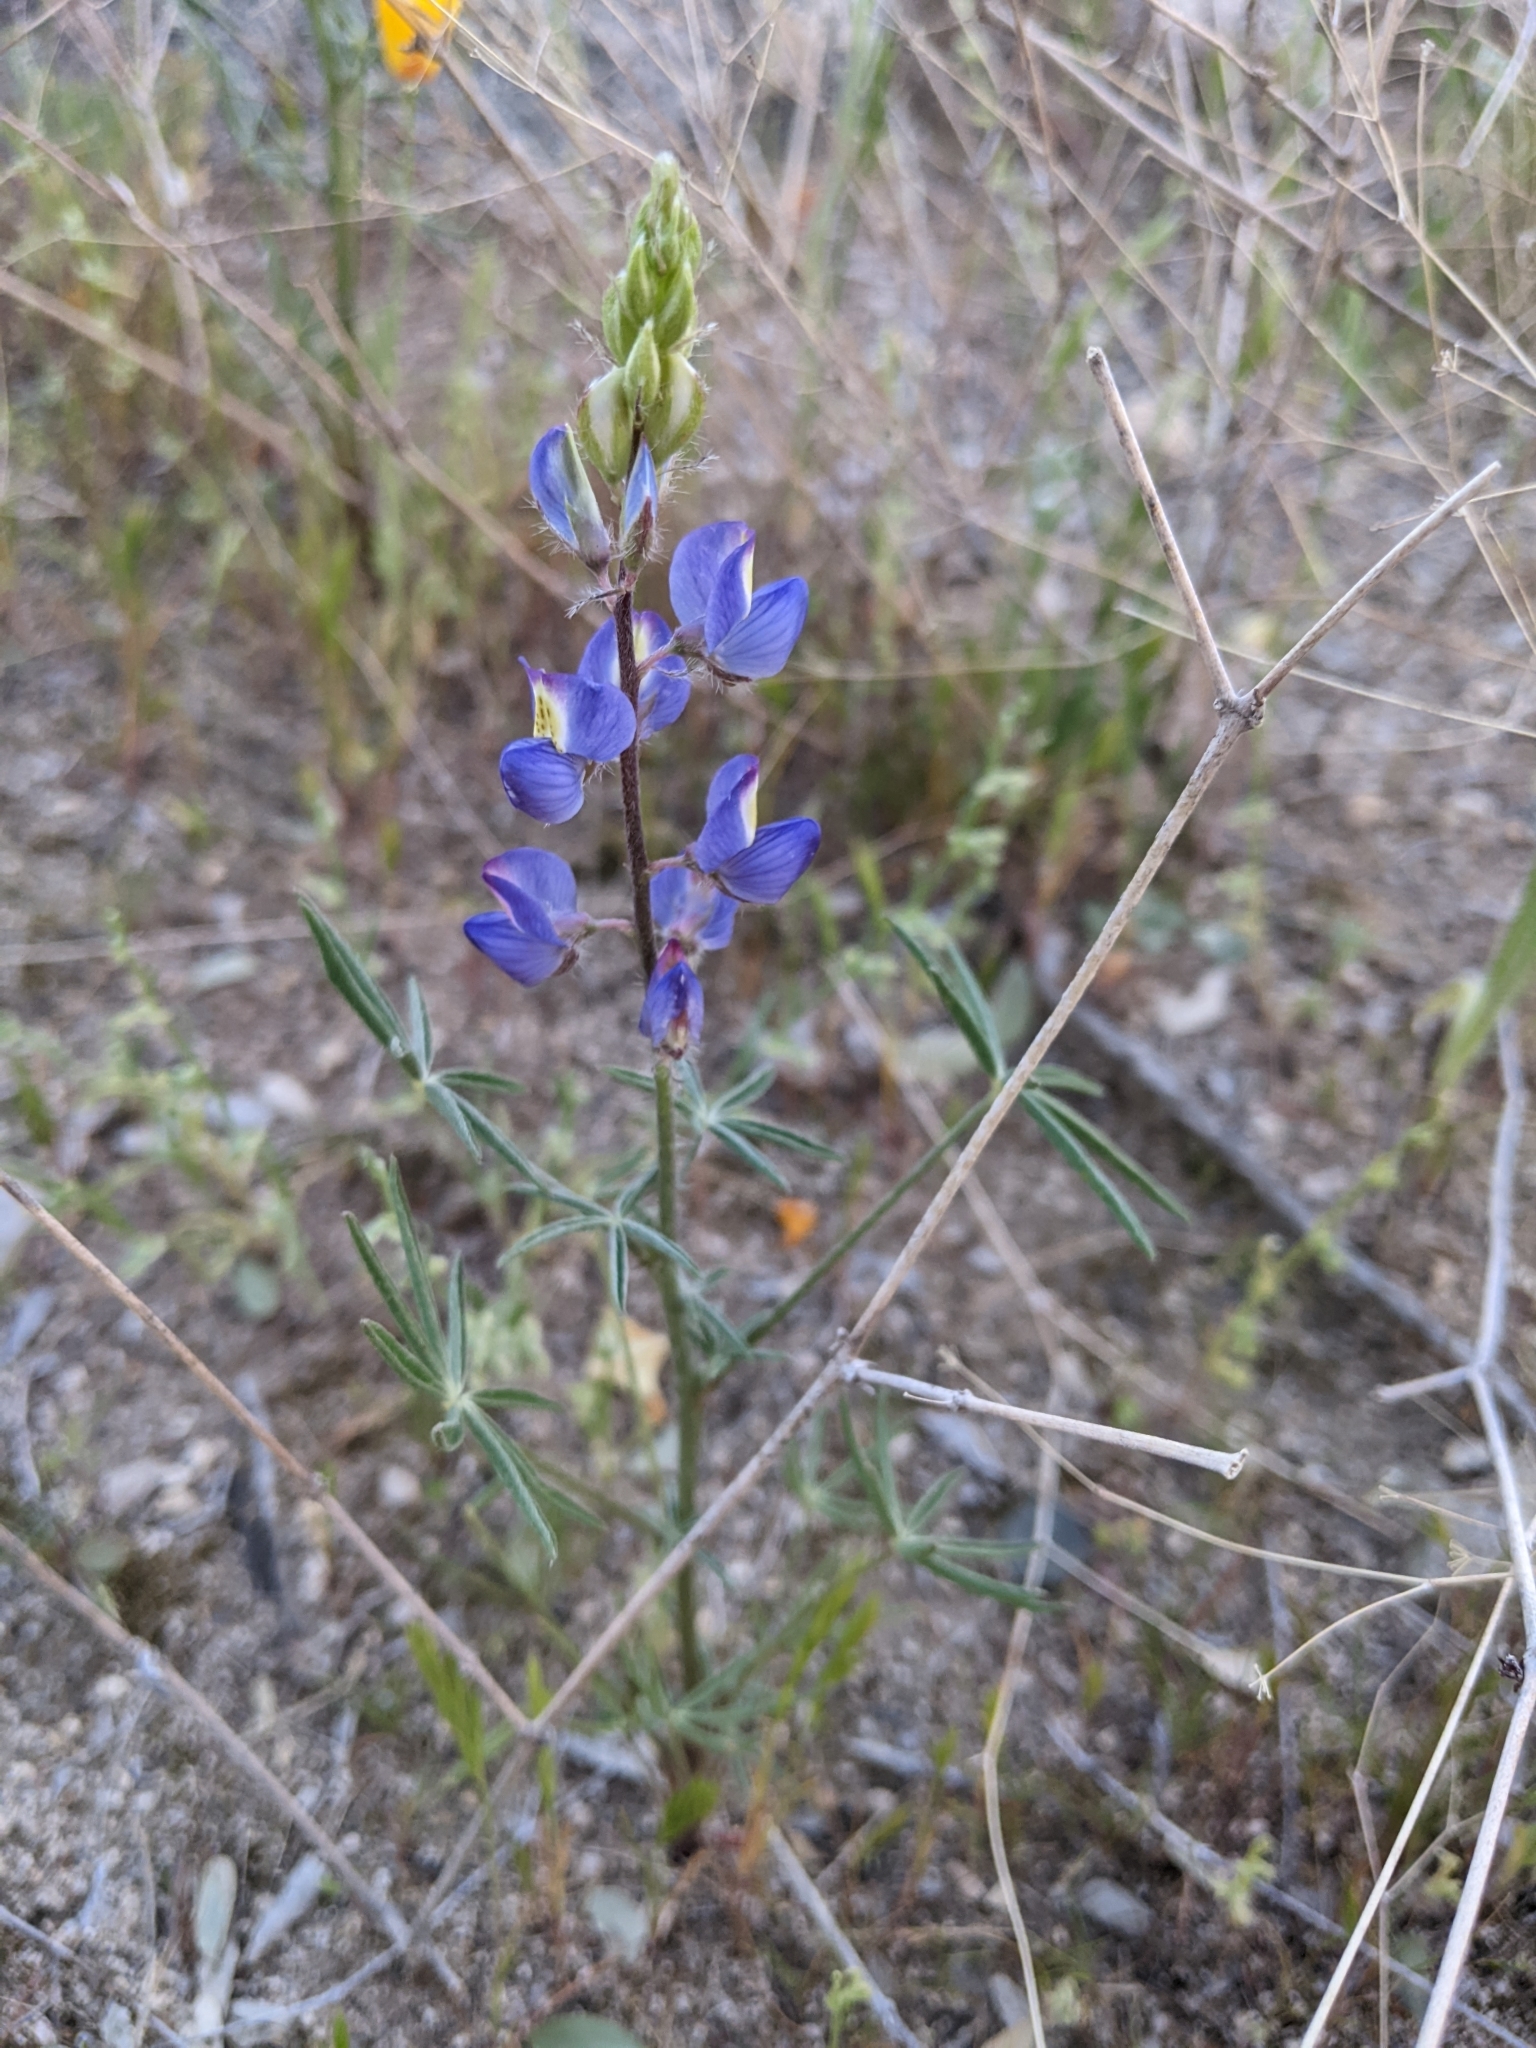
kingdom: Plantae
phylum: Tracheophyta
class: Magnoliopsida
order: Fabales
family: Fabaceae
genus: Lupinus
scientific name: Lupinus sparsiflorus
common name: Coulter's lupine
